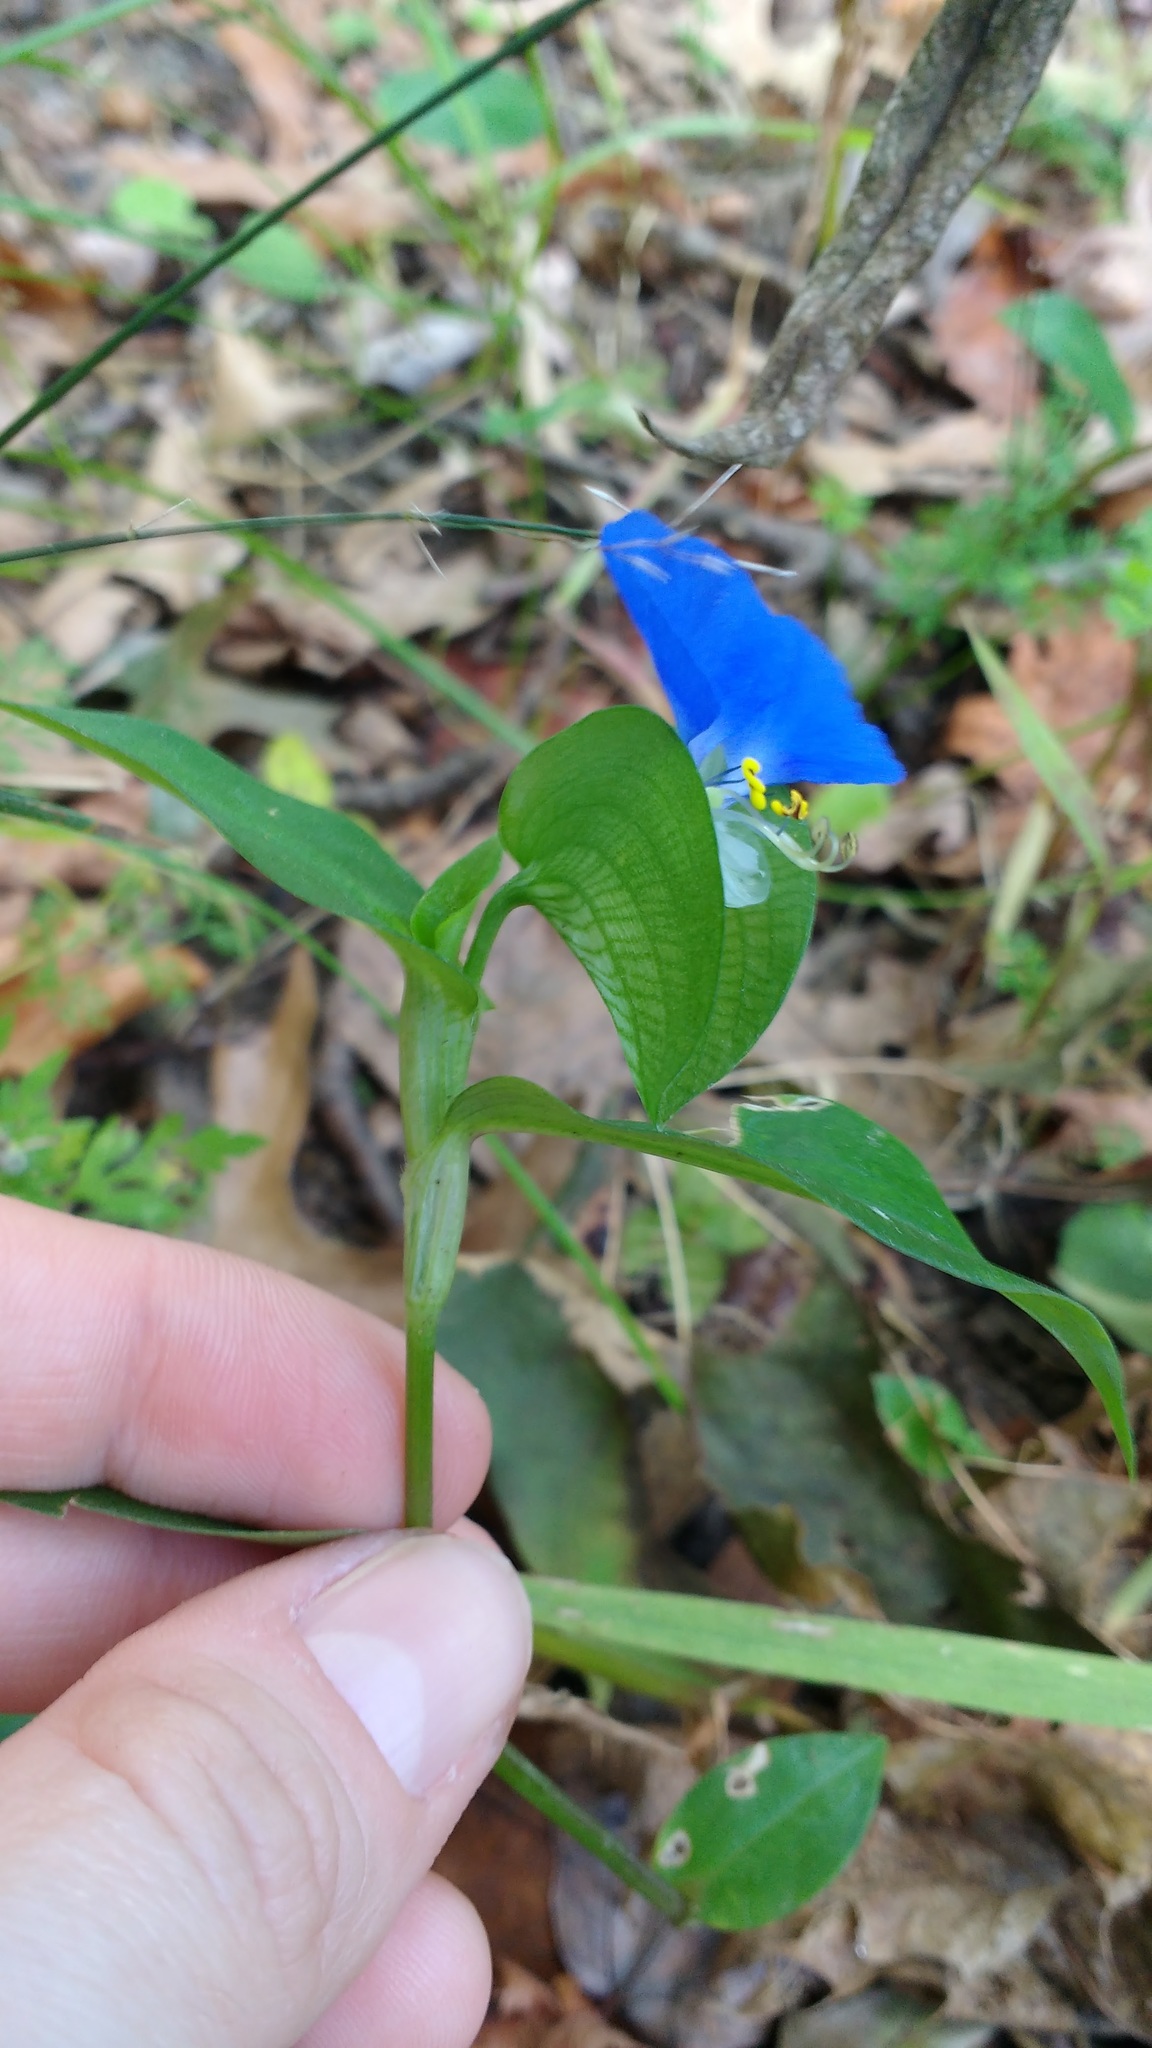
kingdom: Plantae
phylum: Tracheophyta
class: Liliopsida
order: Commelinales
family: Commelinaceae
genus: Commelina
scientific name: Commelina communis
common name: Asiatic dayflower
